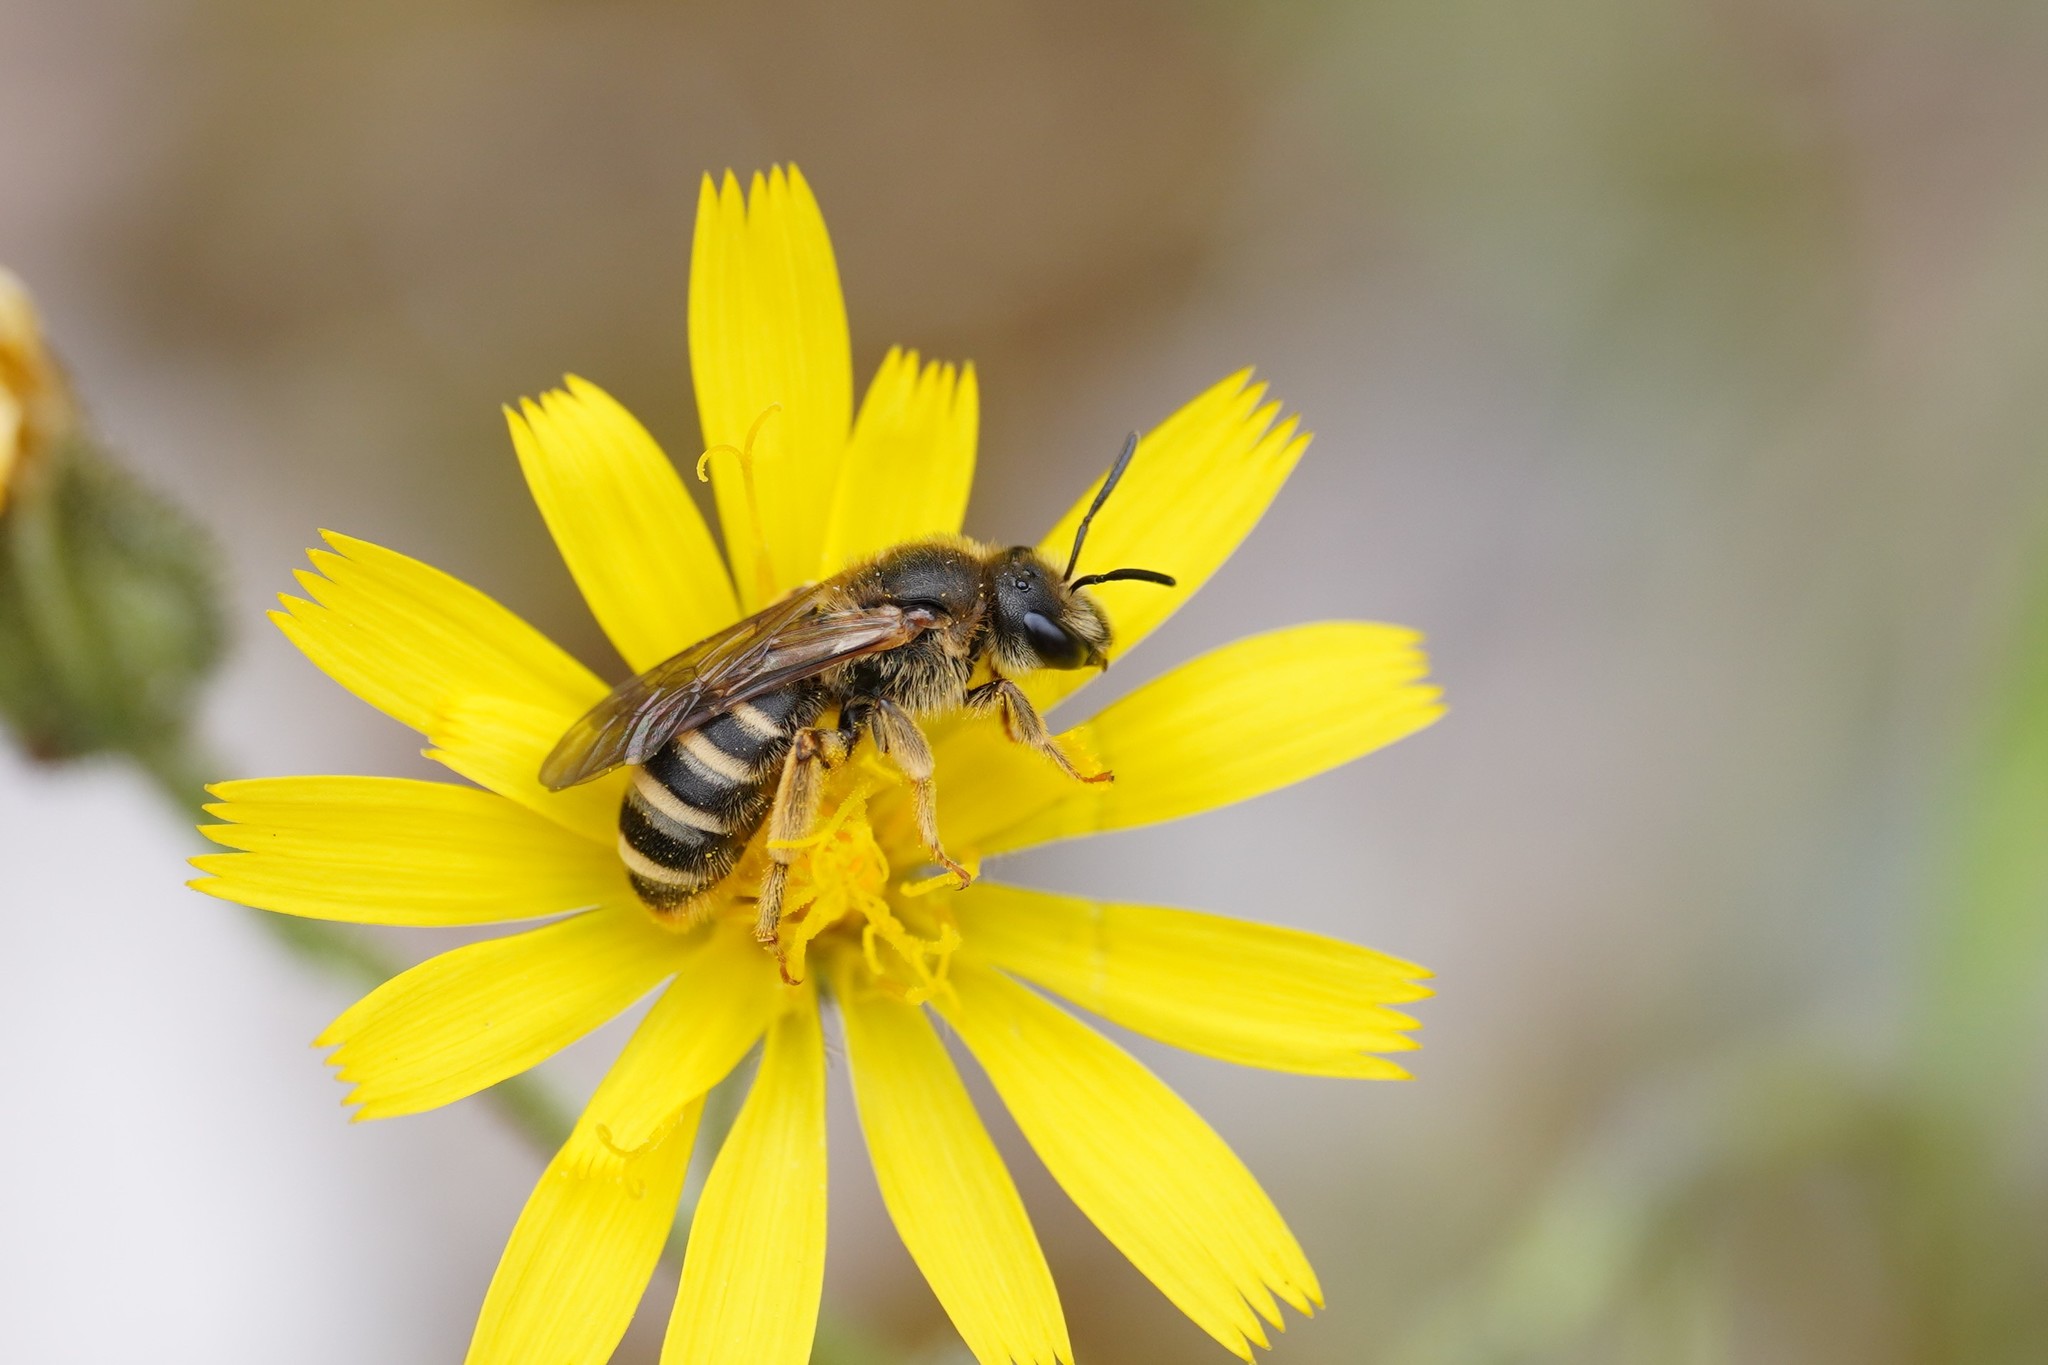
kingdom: Animalia
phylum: Arthropoda
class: Insecta
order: Hymenoptera
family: Halictidae
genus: Halictus
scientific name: Halictus scabiosae
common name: Great banded furrow bee
